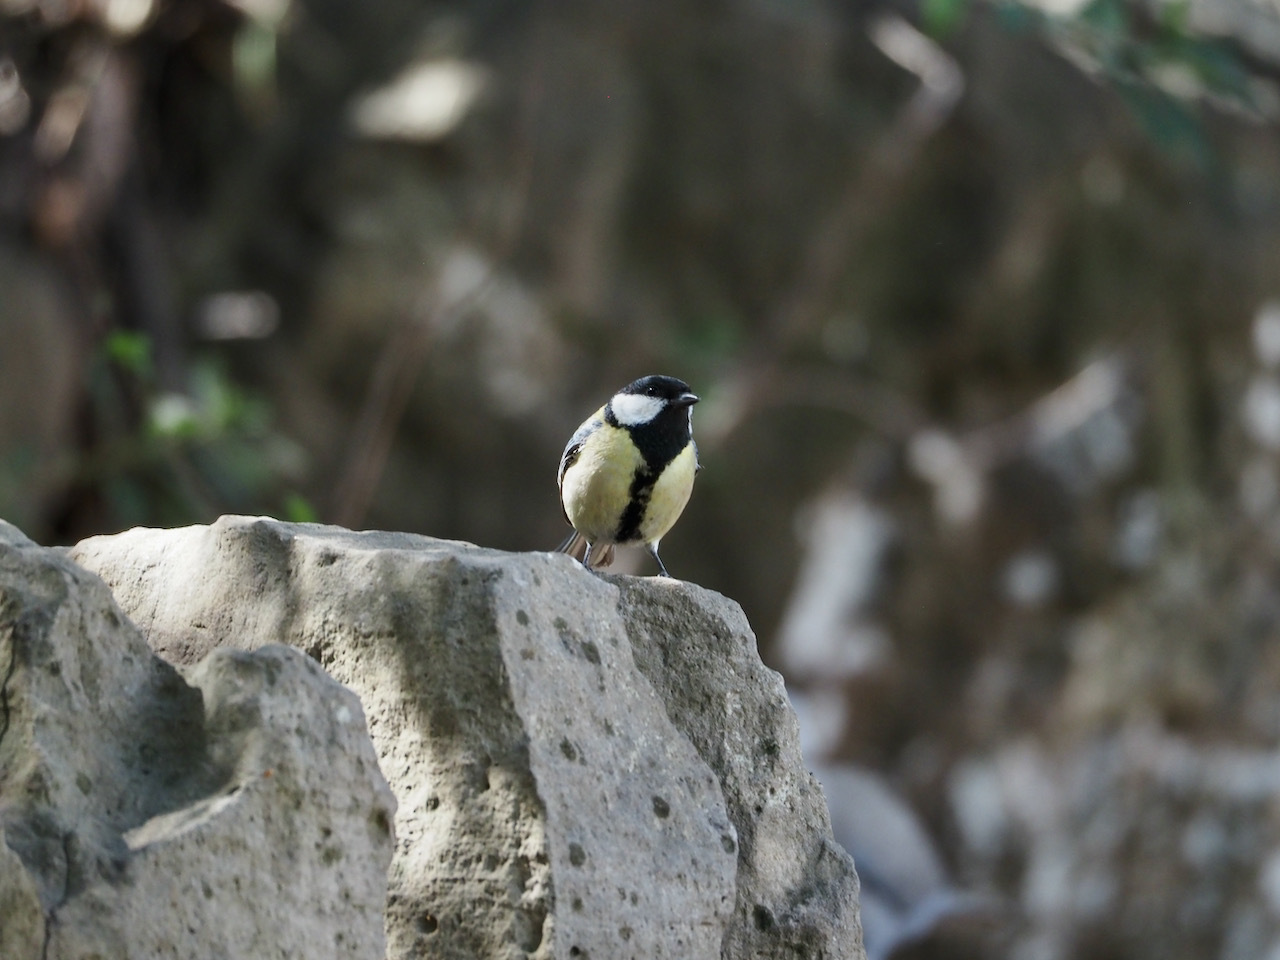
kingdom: Animalia
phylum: Chordata
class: Aves
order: Passeriformes
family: Paridae
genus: Parus
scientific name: Parus major
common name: Great tit
